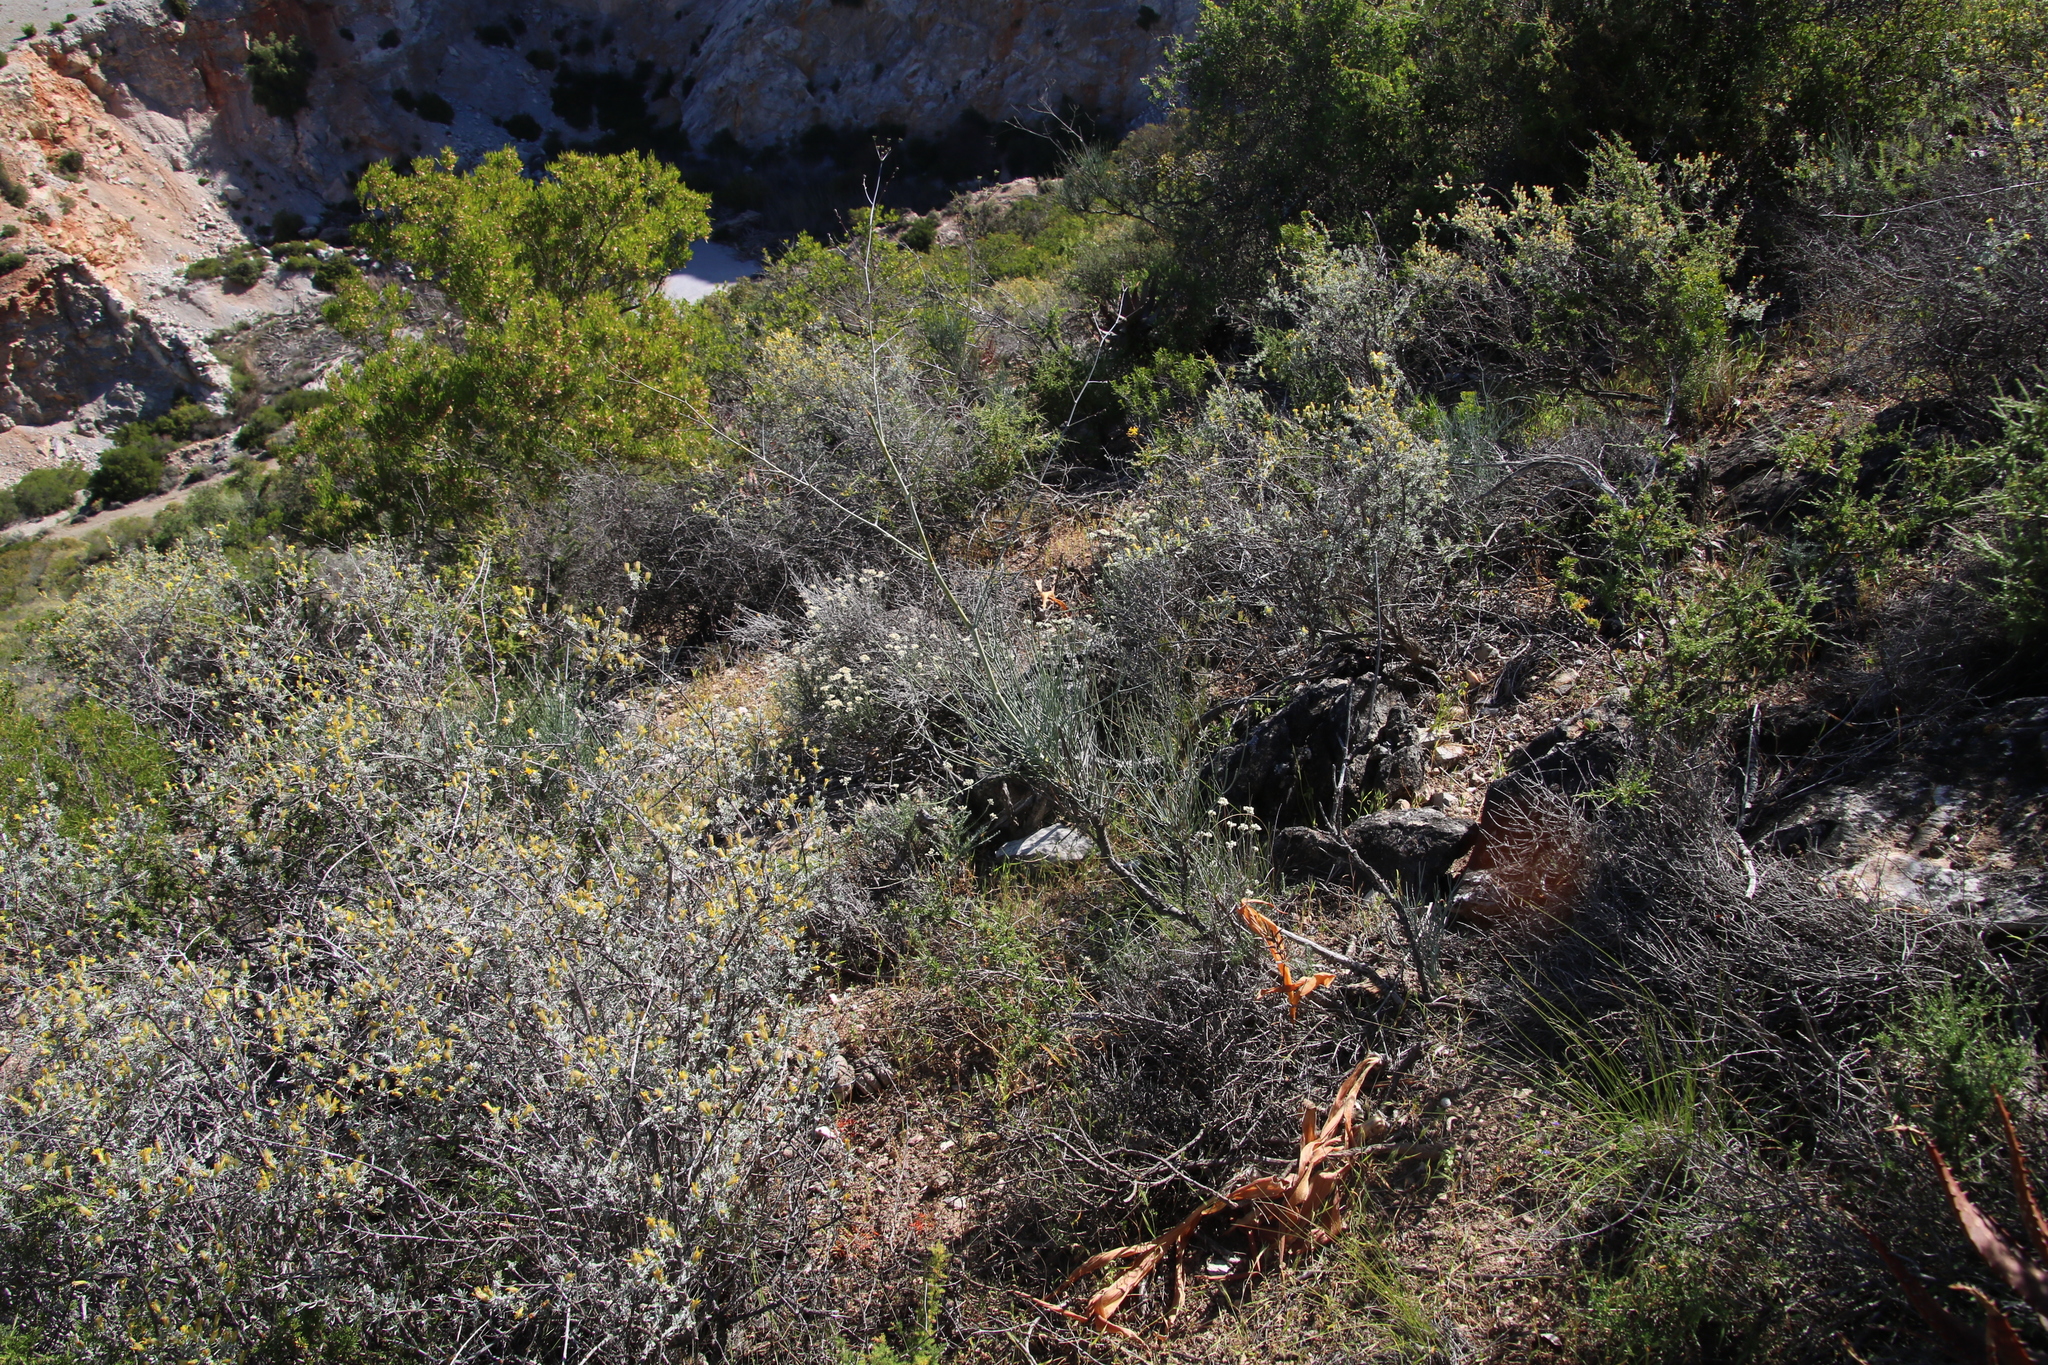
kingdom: Plantae
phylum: Tracheophyta
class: Magnoliopsida
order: Apiales
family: Apiaceae
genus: Anginon
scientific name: Anginon swellendamense
